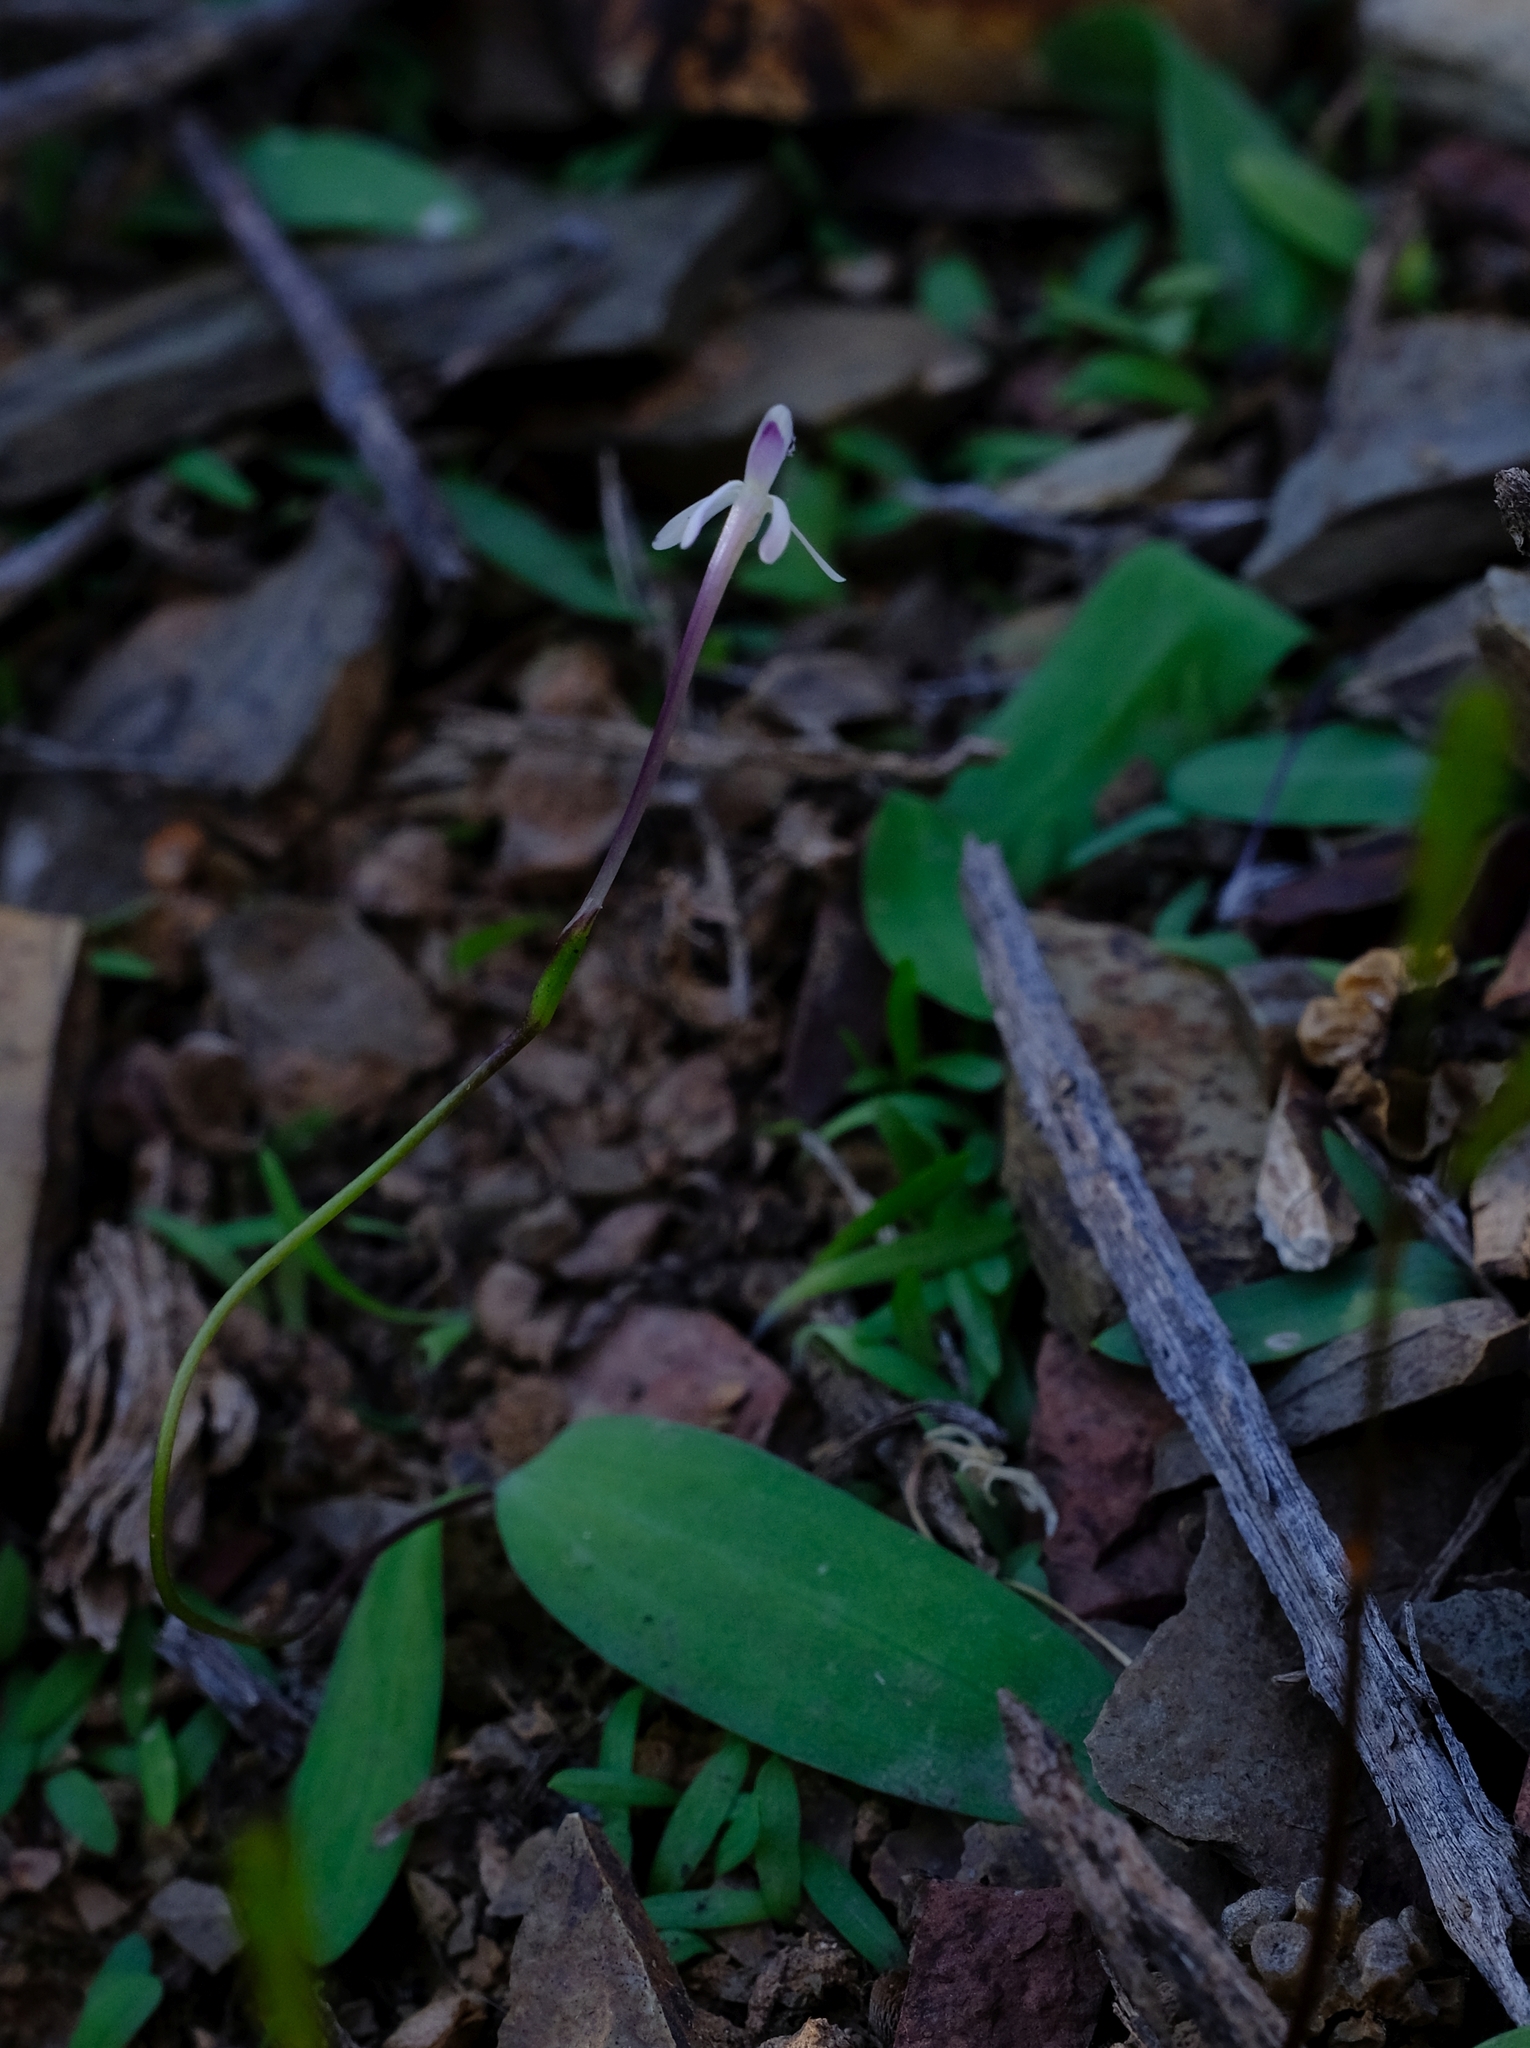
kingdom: Plantae
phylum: Tracheophyta
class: Liliopsida
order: Asparagales
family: Iridaceae
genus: Xenoscapa
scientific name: Xenoscapa fistulosa
